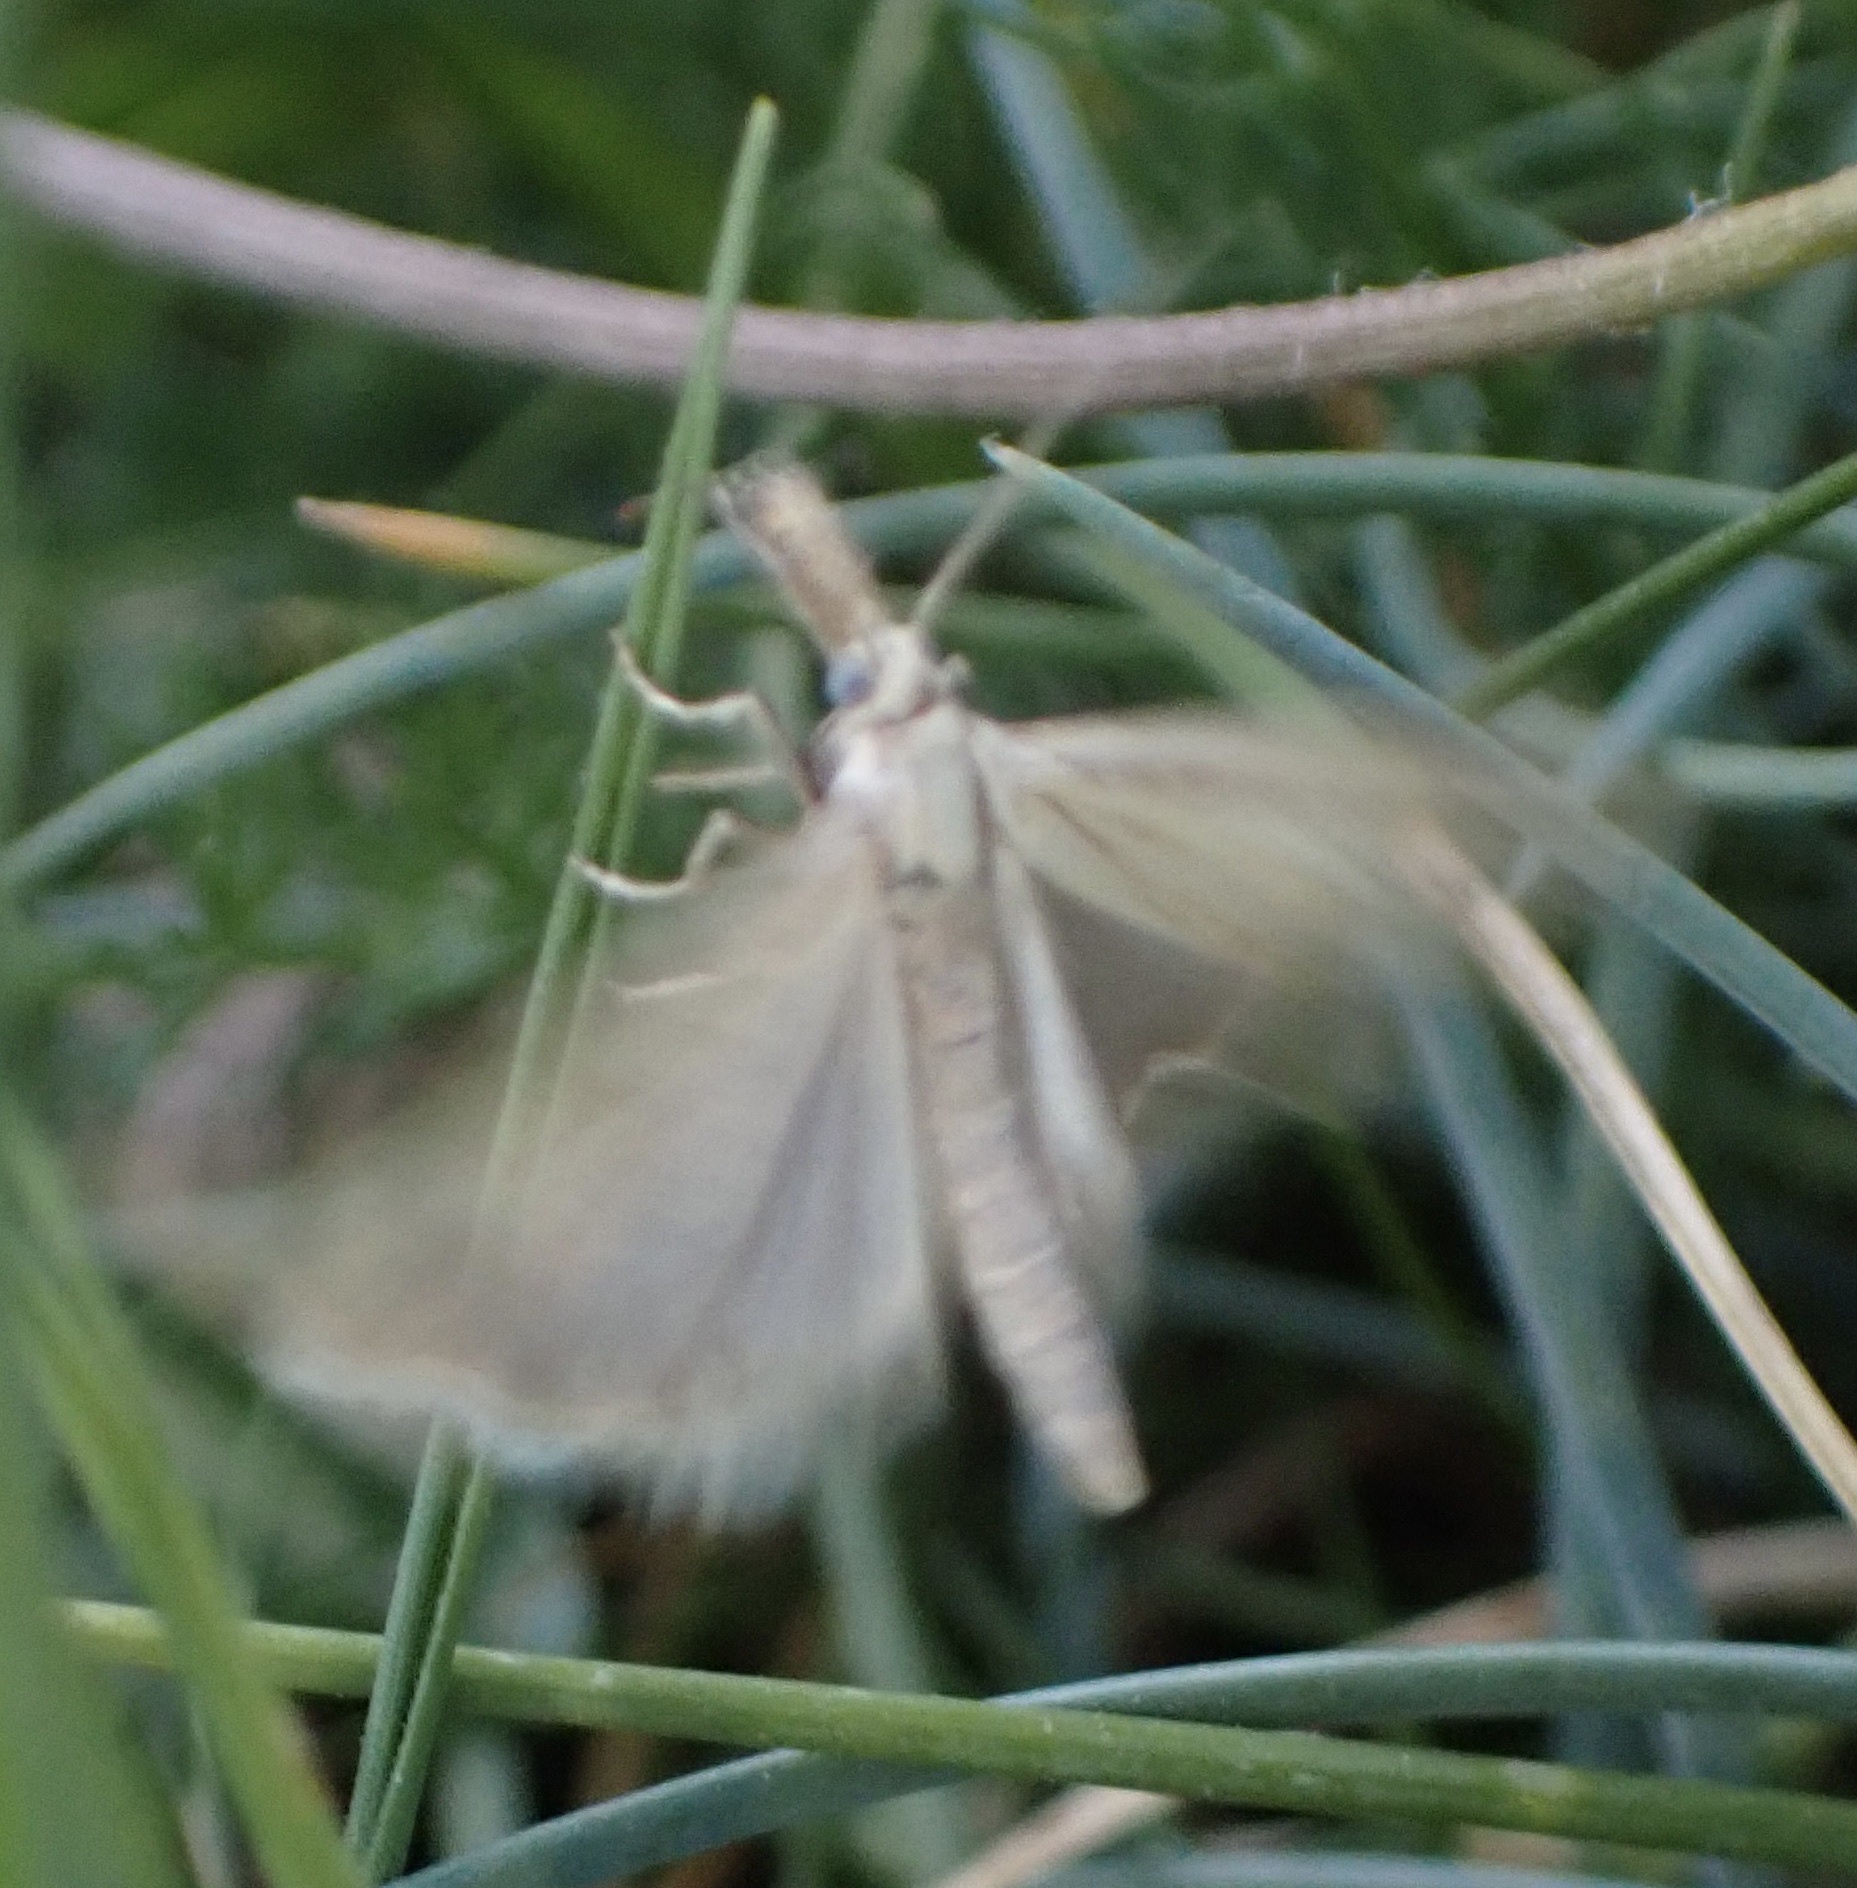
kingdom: Animalia
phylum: Arthropoda
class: Insecta
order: Lepidoptera
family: Crambidae
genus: Agriphila
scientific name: Agriphila straminella
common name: Straw grass-veneer
